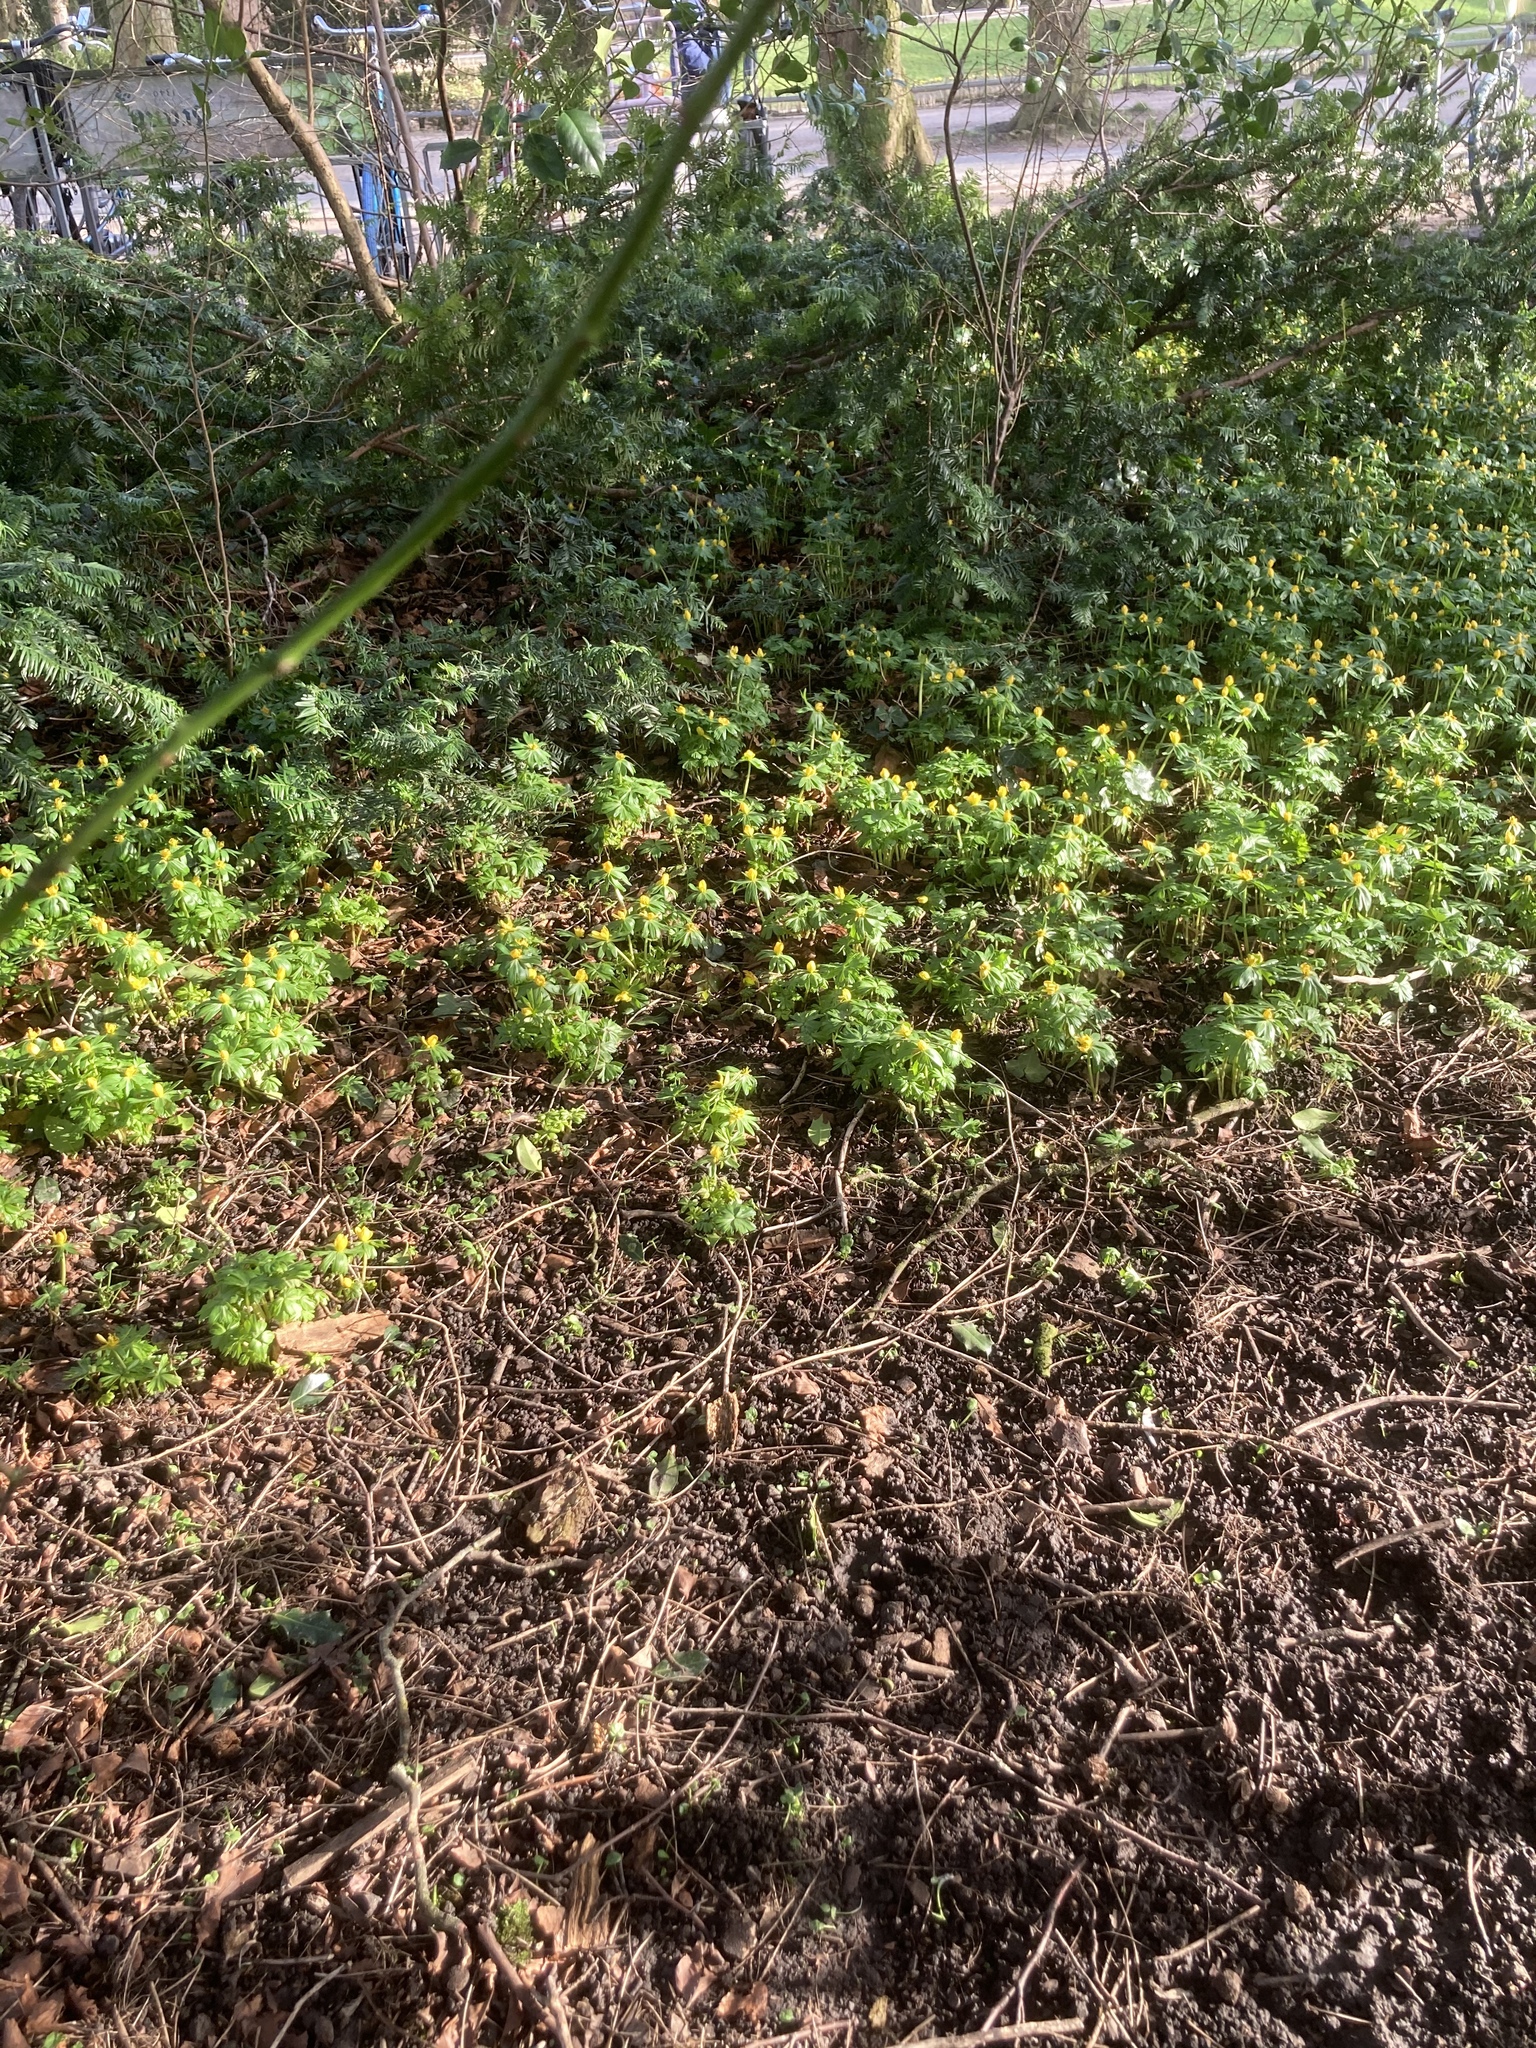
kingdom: Plantae
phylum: Tracheophyta
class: Magnoliopsida
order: Ranunculales
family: Ranunculaceae
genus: Eranthis
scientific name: Eranthis hyemalis
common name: Winter aconite
